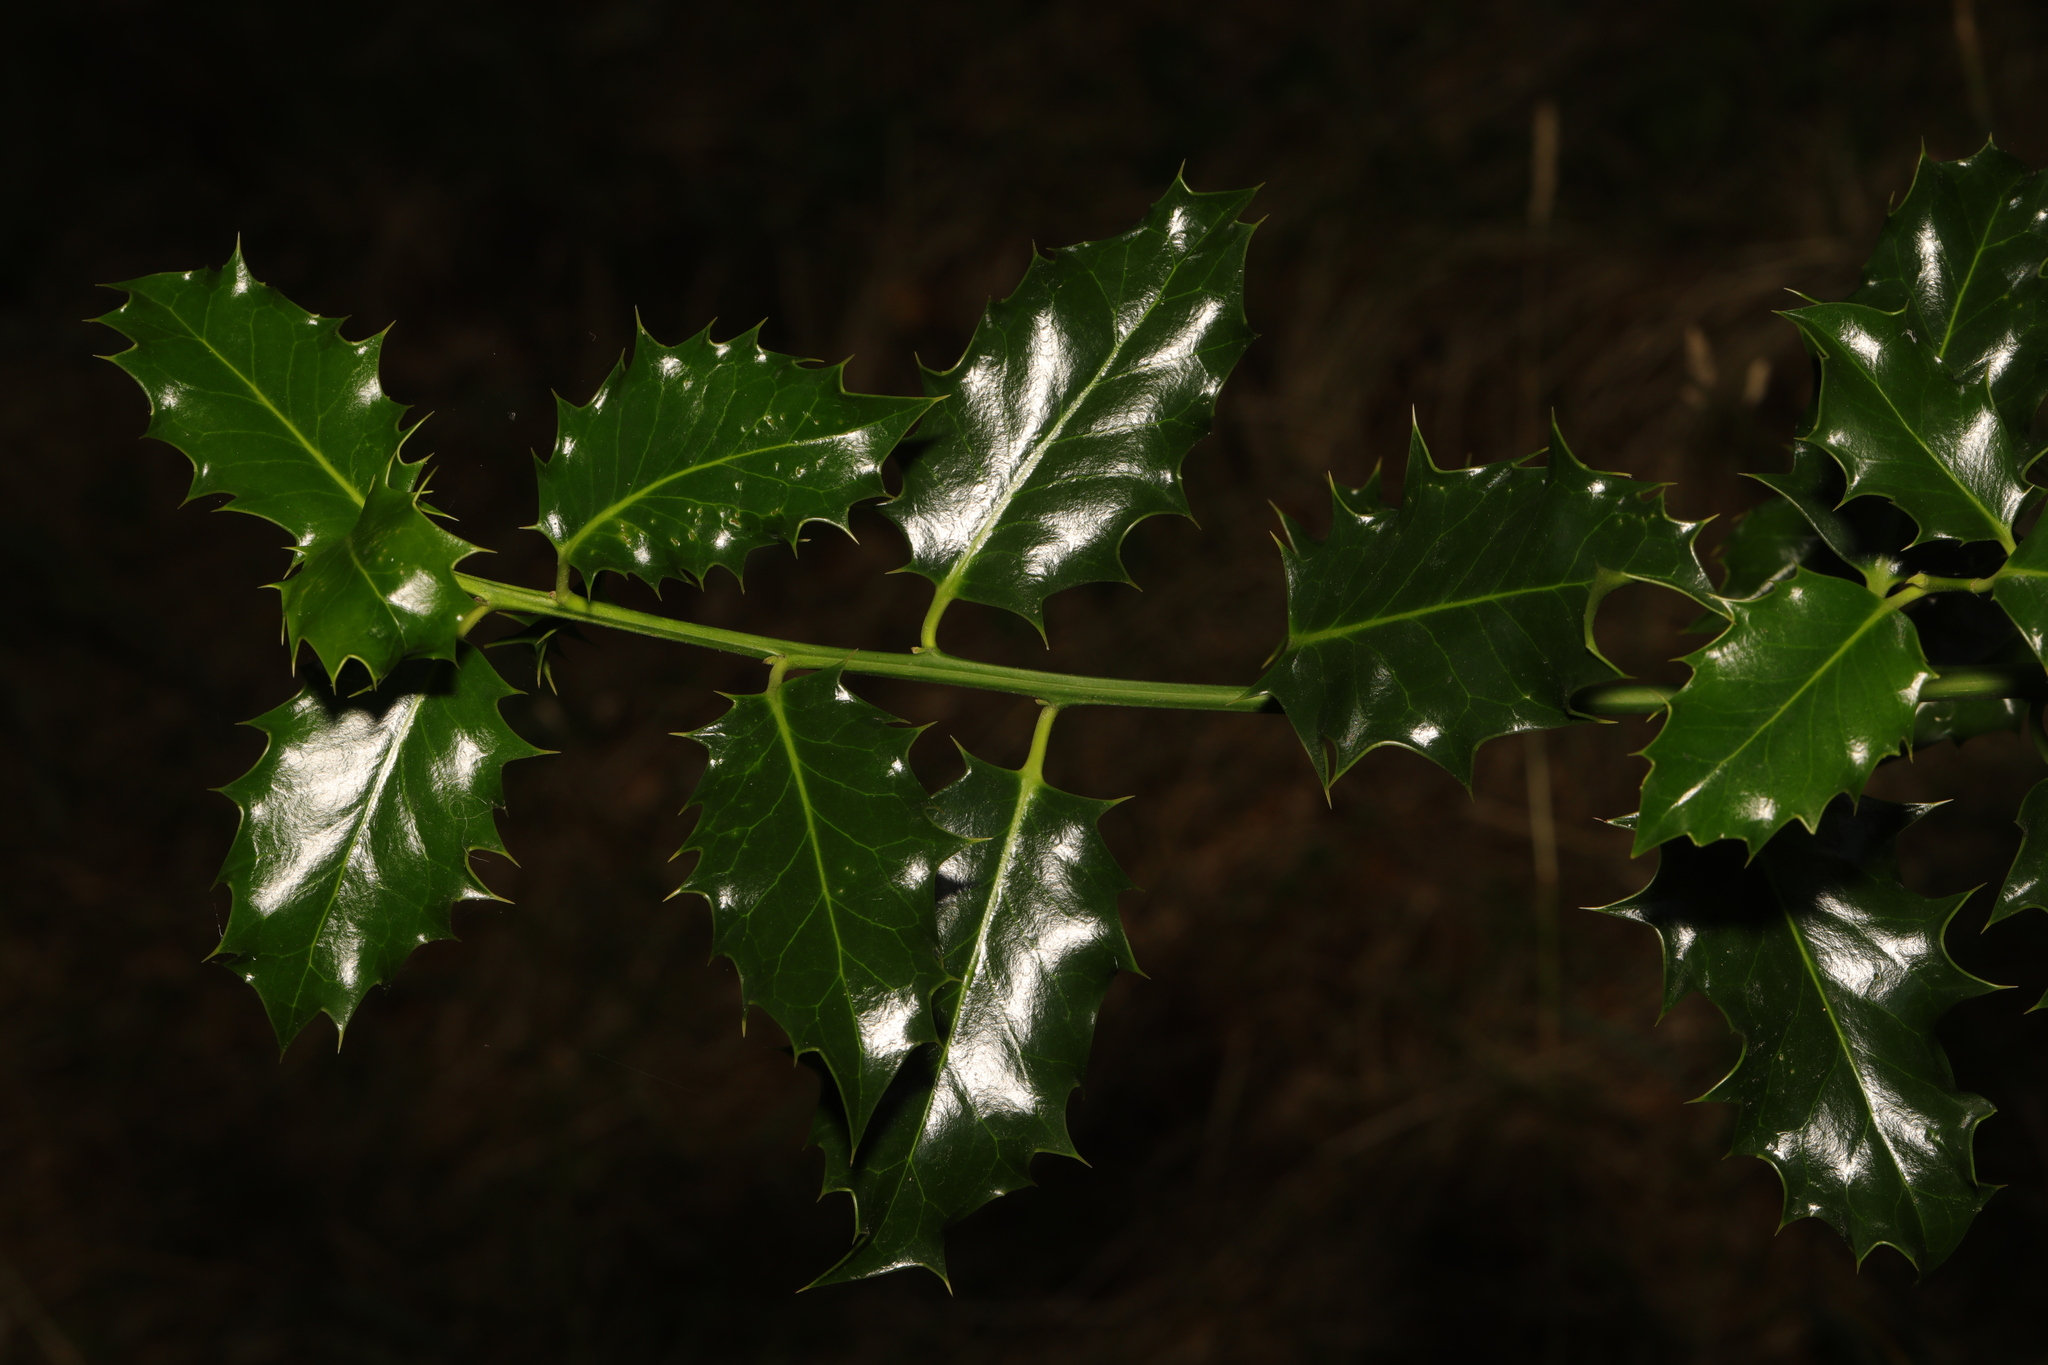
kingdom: Plantae
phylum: Tracheophyta
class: Magnoliopsida
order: Aquifoliales
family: Aquifoliaceae
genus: Ilex
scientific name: Ilex aquifolium
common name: English holly
